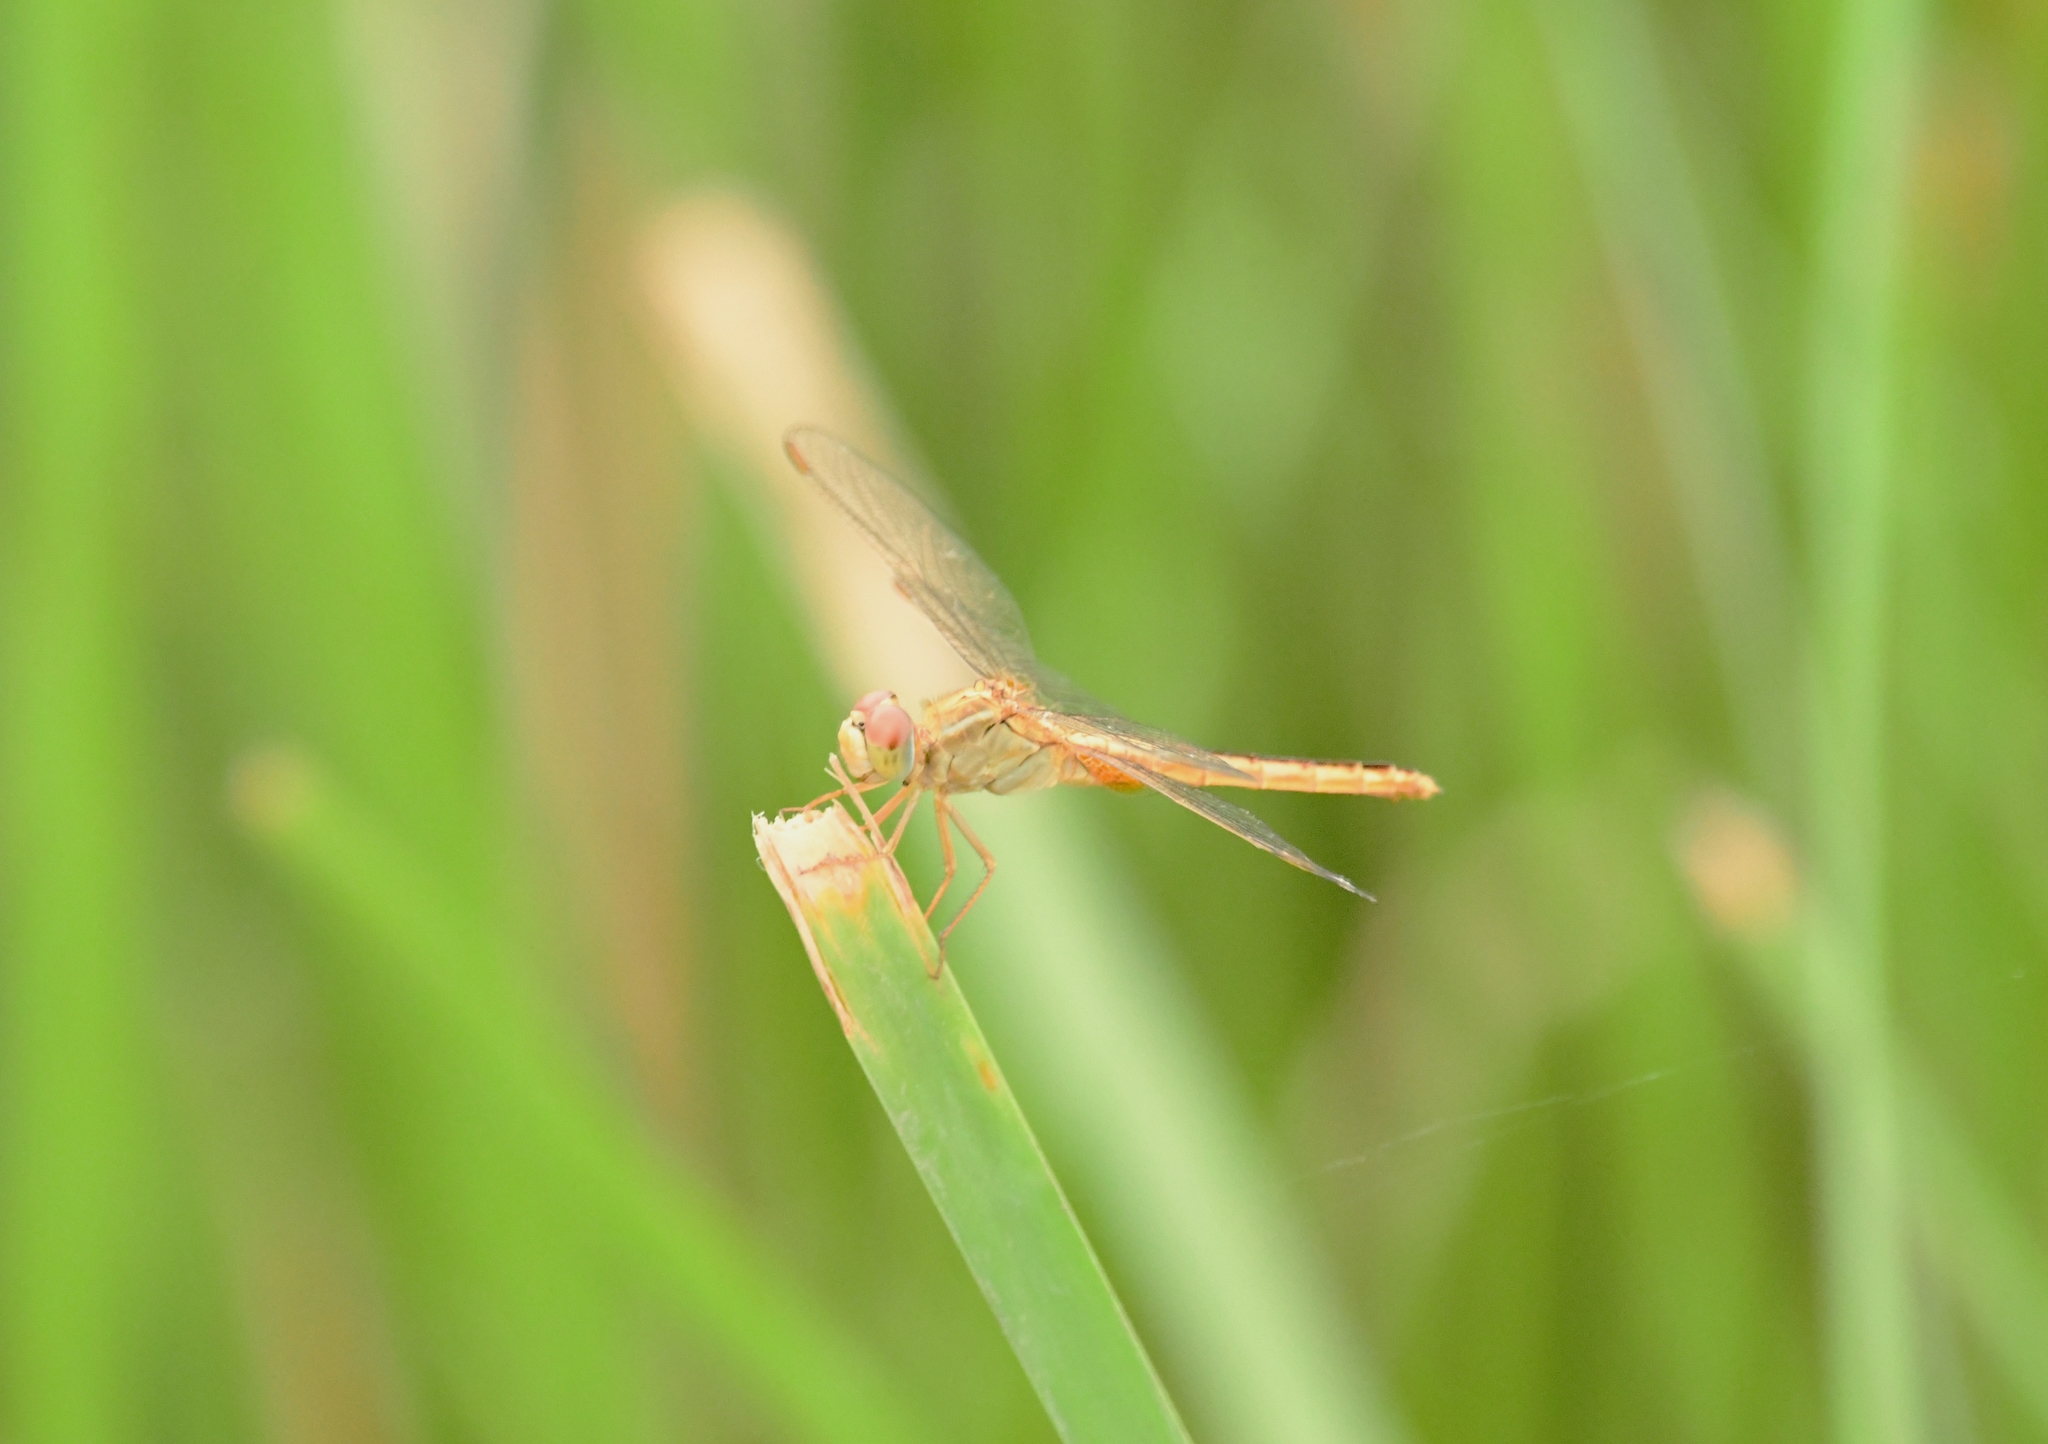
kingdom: Animalia
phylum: Arthropoda
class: Insecta
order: Odonata
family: Libellulidae
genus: Crocothemis
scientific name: Crocothemis servilia
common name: Scarlet skimmer
